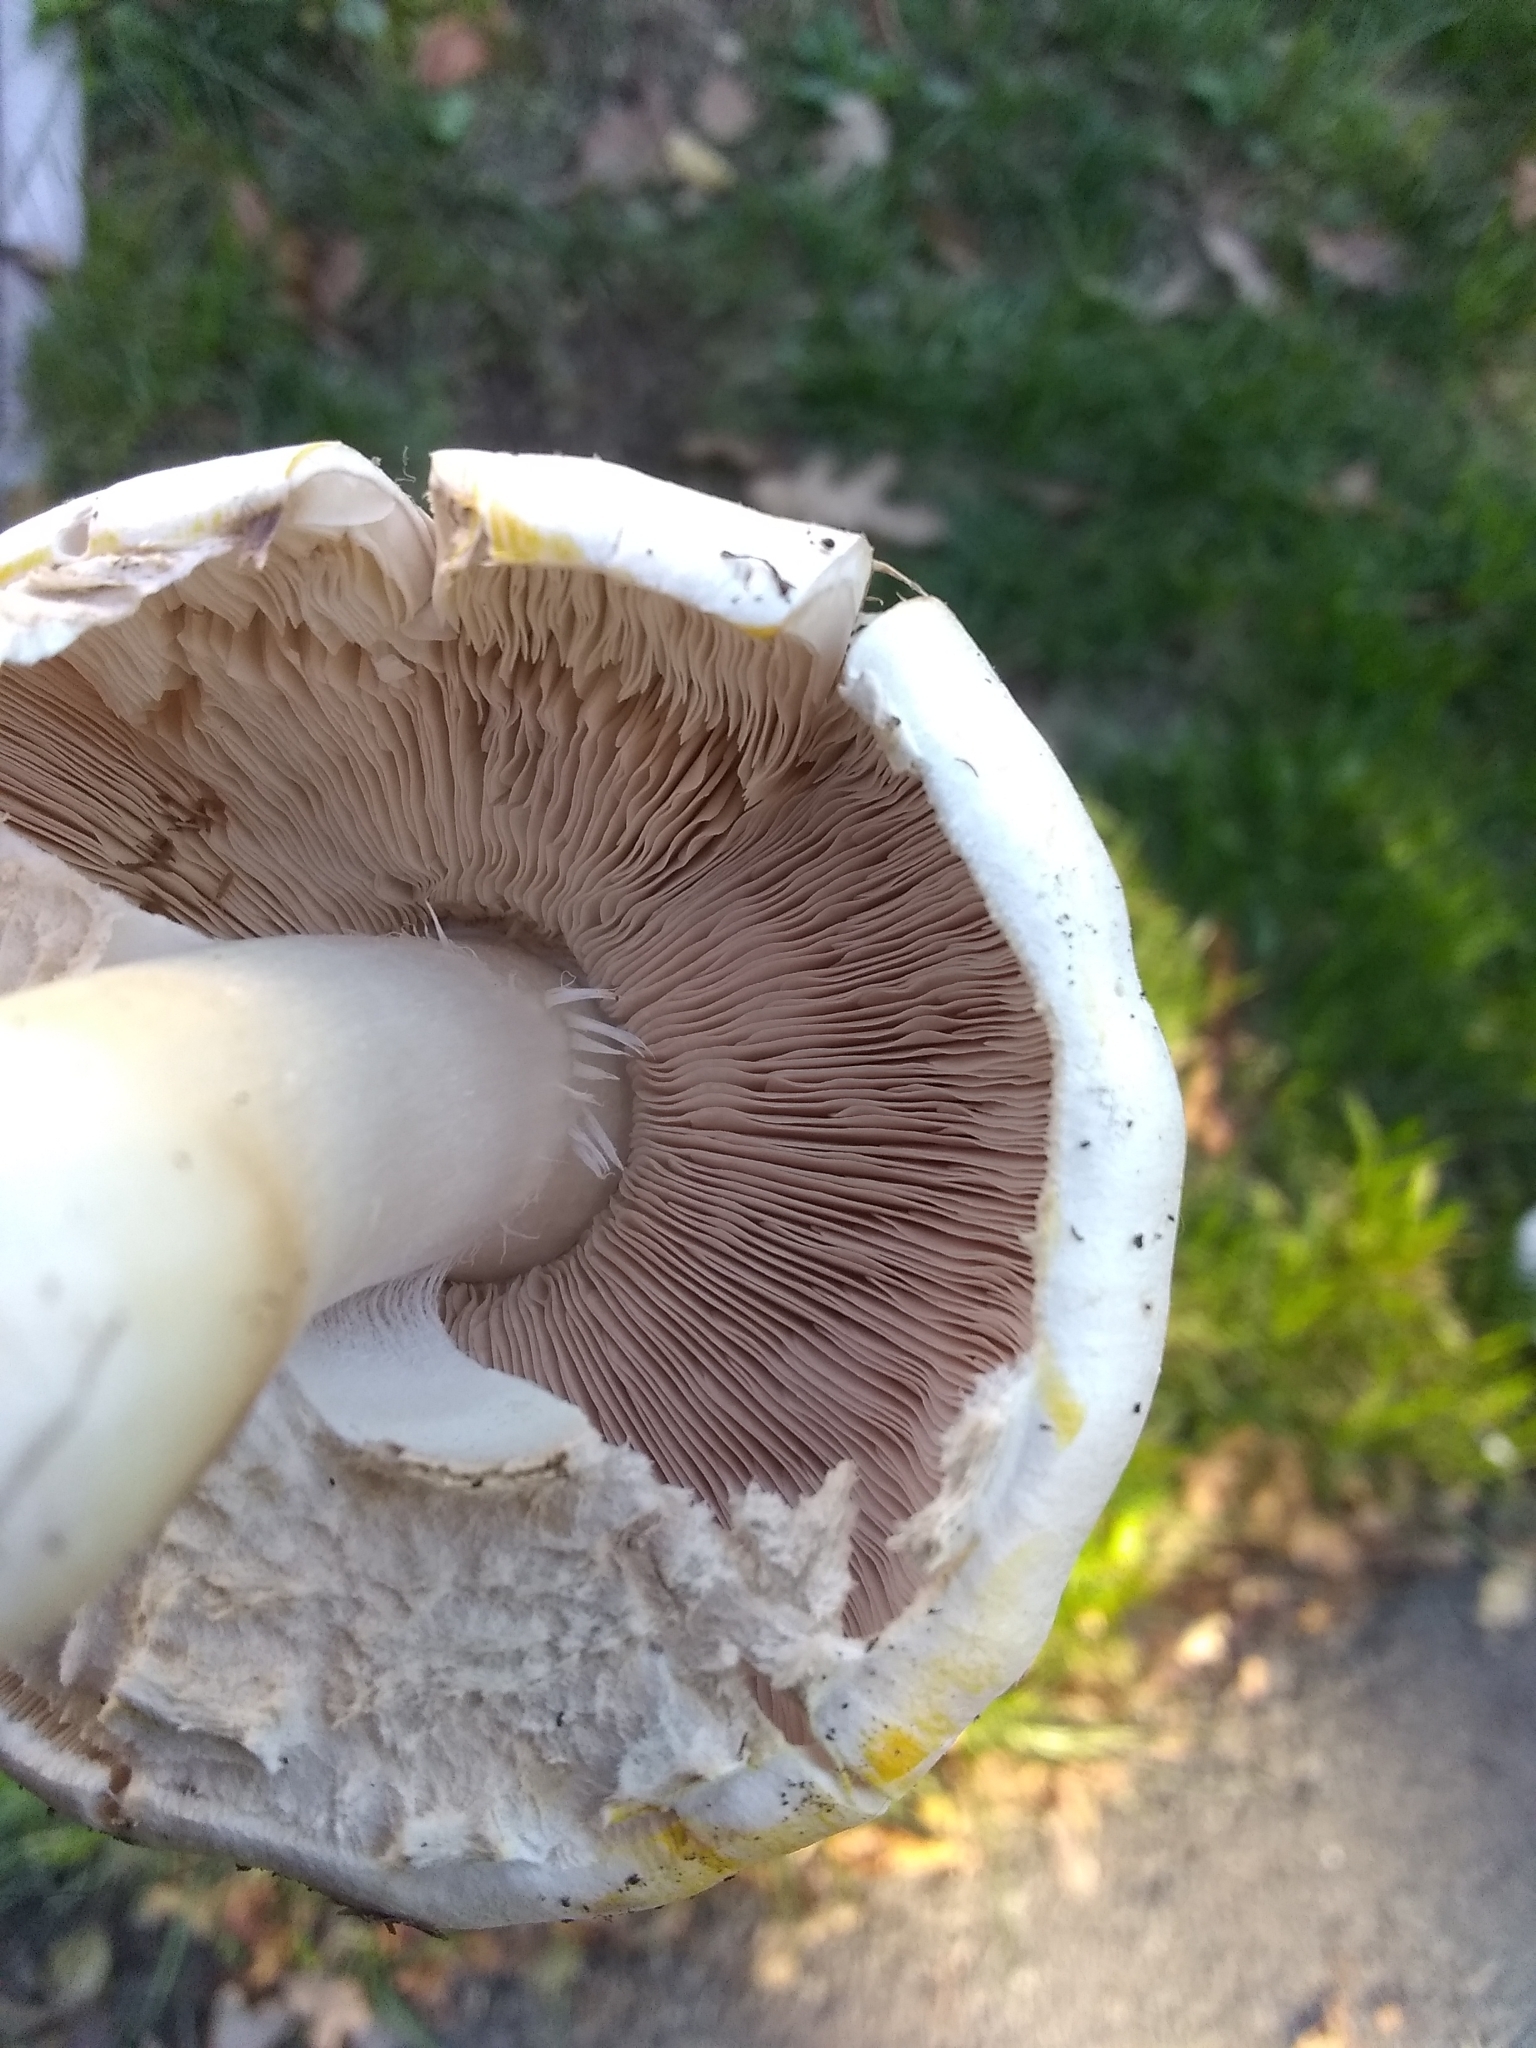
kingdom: Fungi
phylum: Basidiomycota
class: Agaricomycetes
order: Agaricales
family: Agaricaceae
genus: Agaricus
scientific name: Agaricus xanthodermus
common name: Yellow stainer
